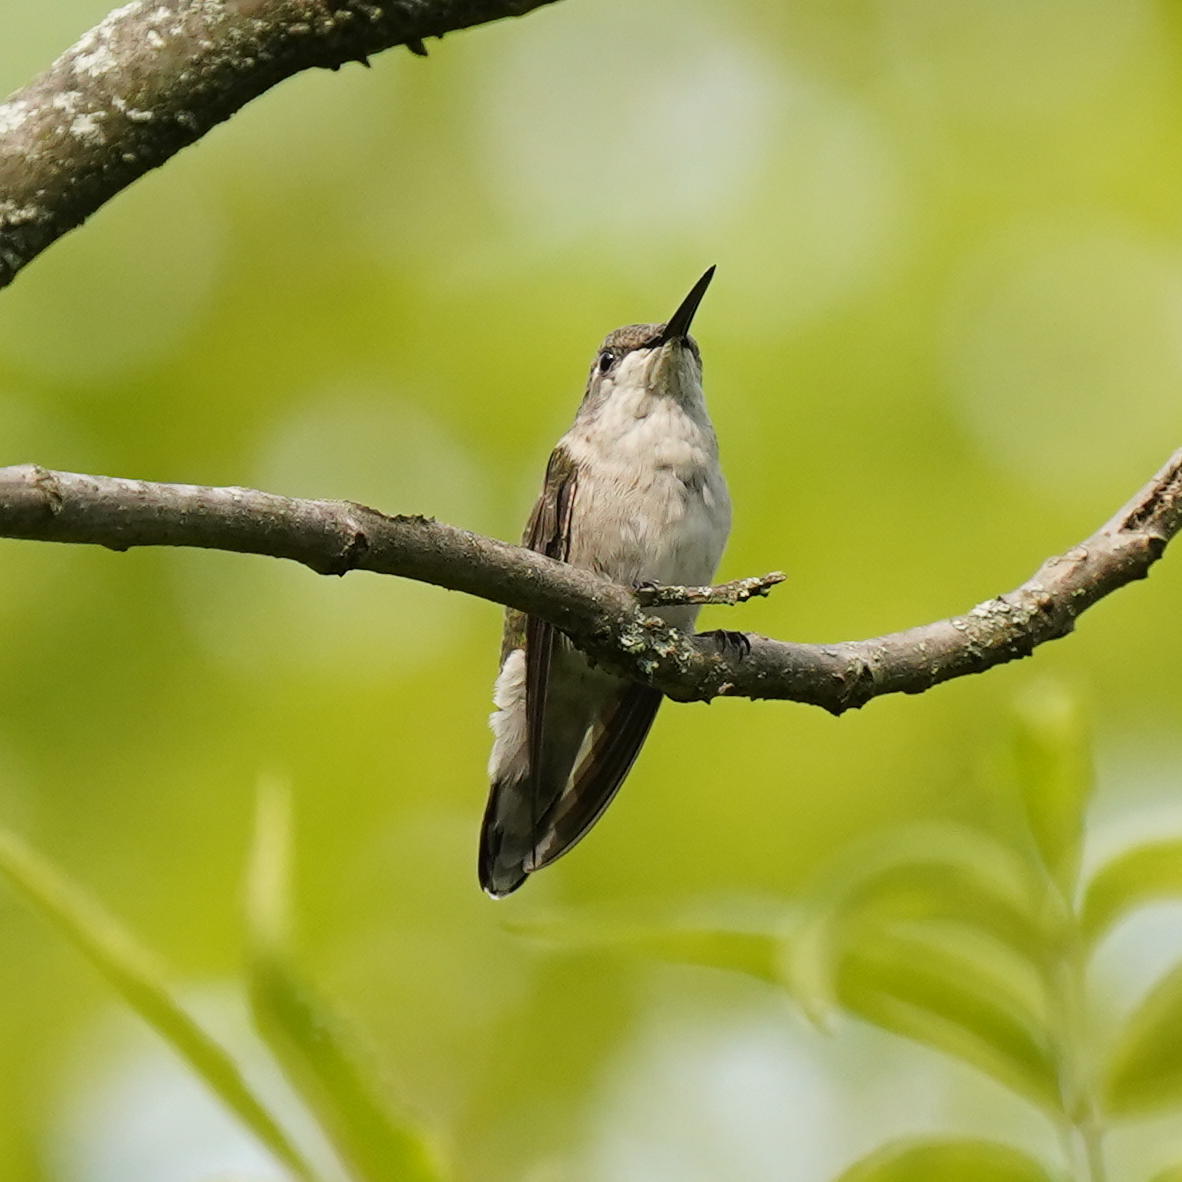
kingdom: Animalia
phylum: Chordata
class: Aves
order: Apodiformes
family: Trochilidae
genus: Archilochus
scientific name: Archilochus colubris
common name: Ruby-throated hummingbird
